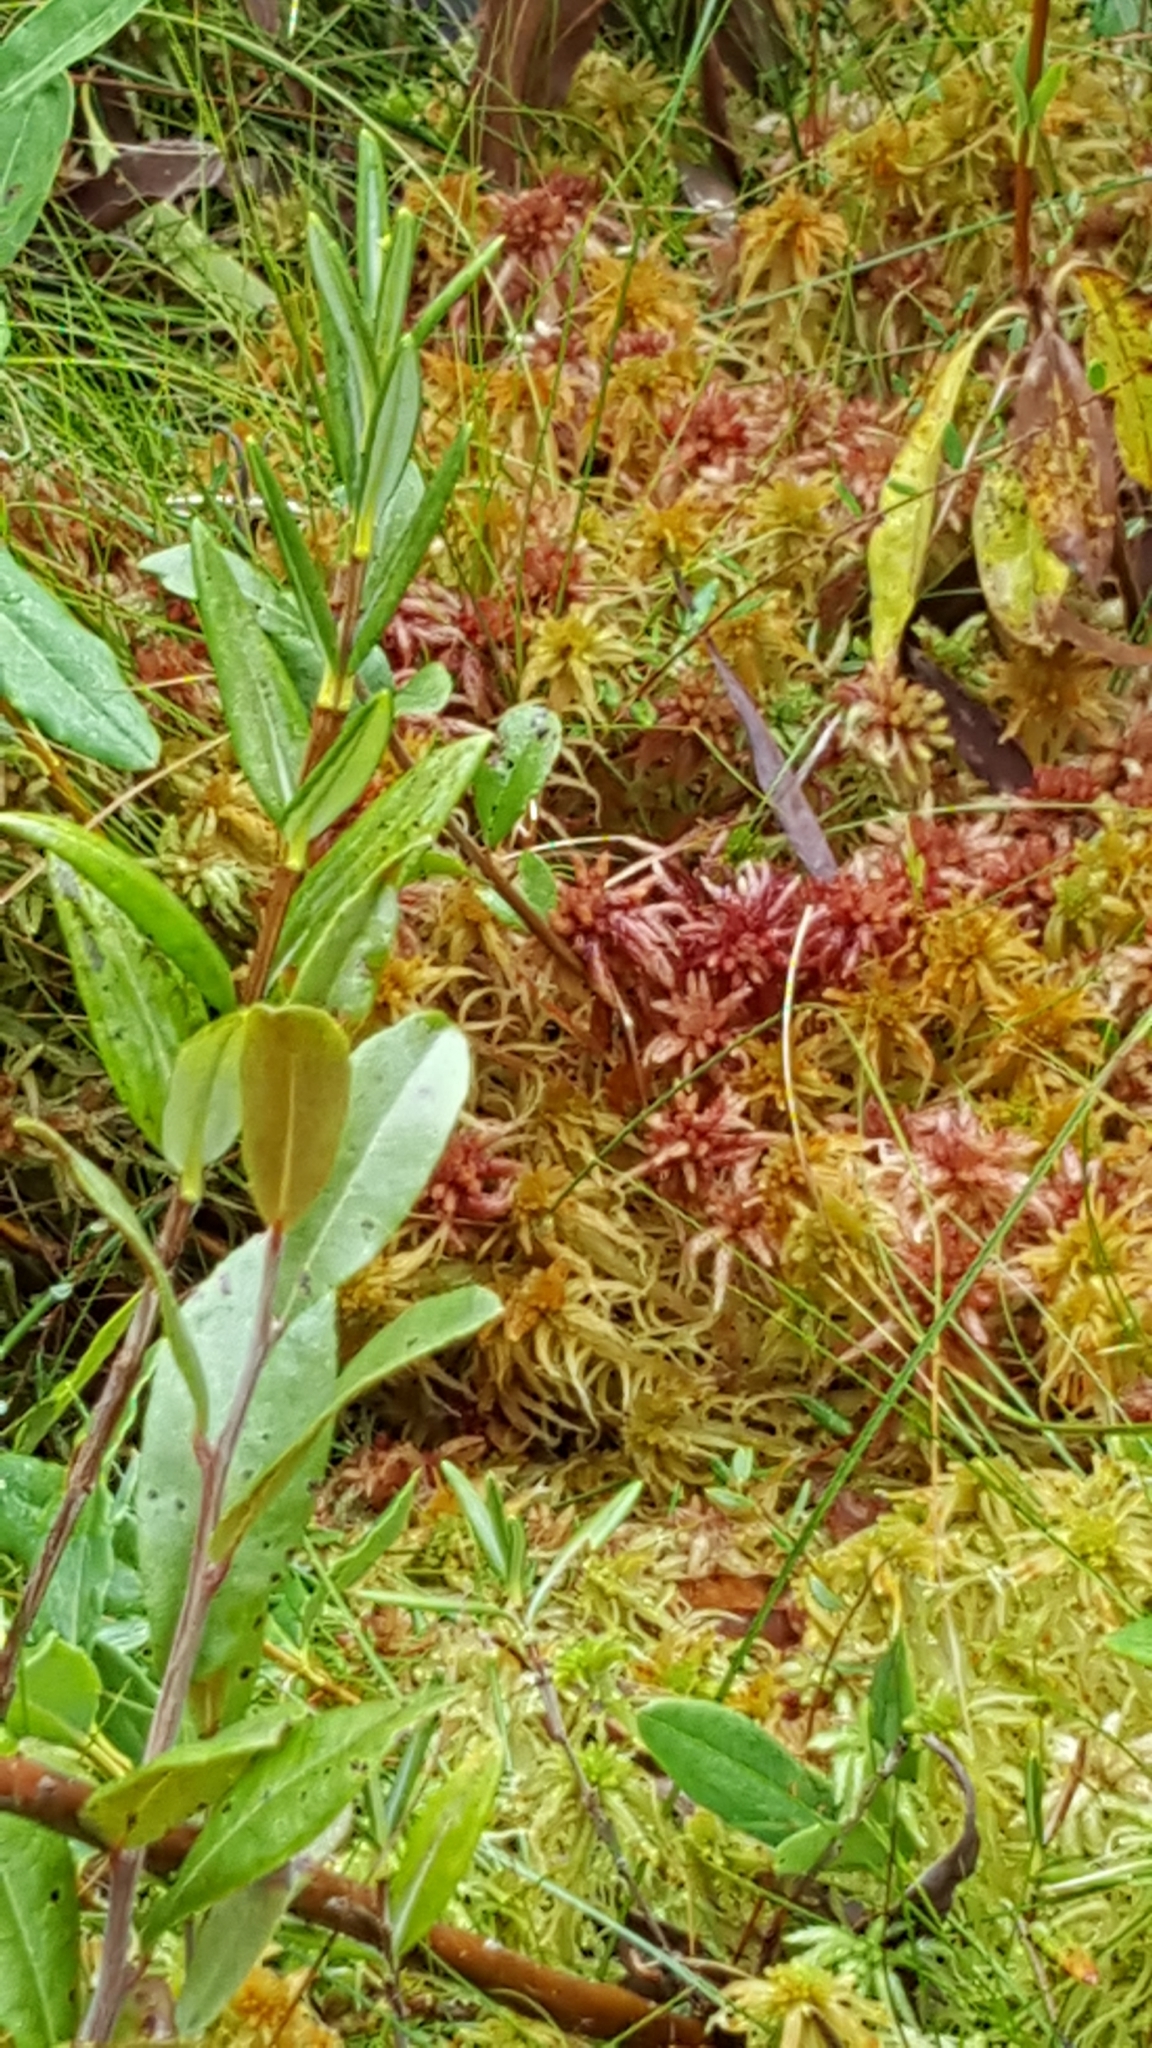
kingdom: Plantae
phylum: Bryophyta
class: Sphagnopsida
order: Sphagnales
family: Sphagnaceae
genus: Sphagnum
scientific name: Sphagnum angustifolium
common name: Narrow-leaved peat moss
